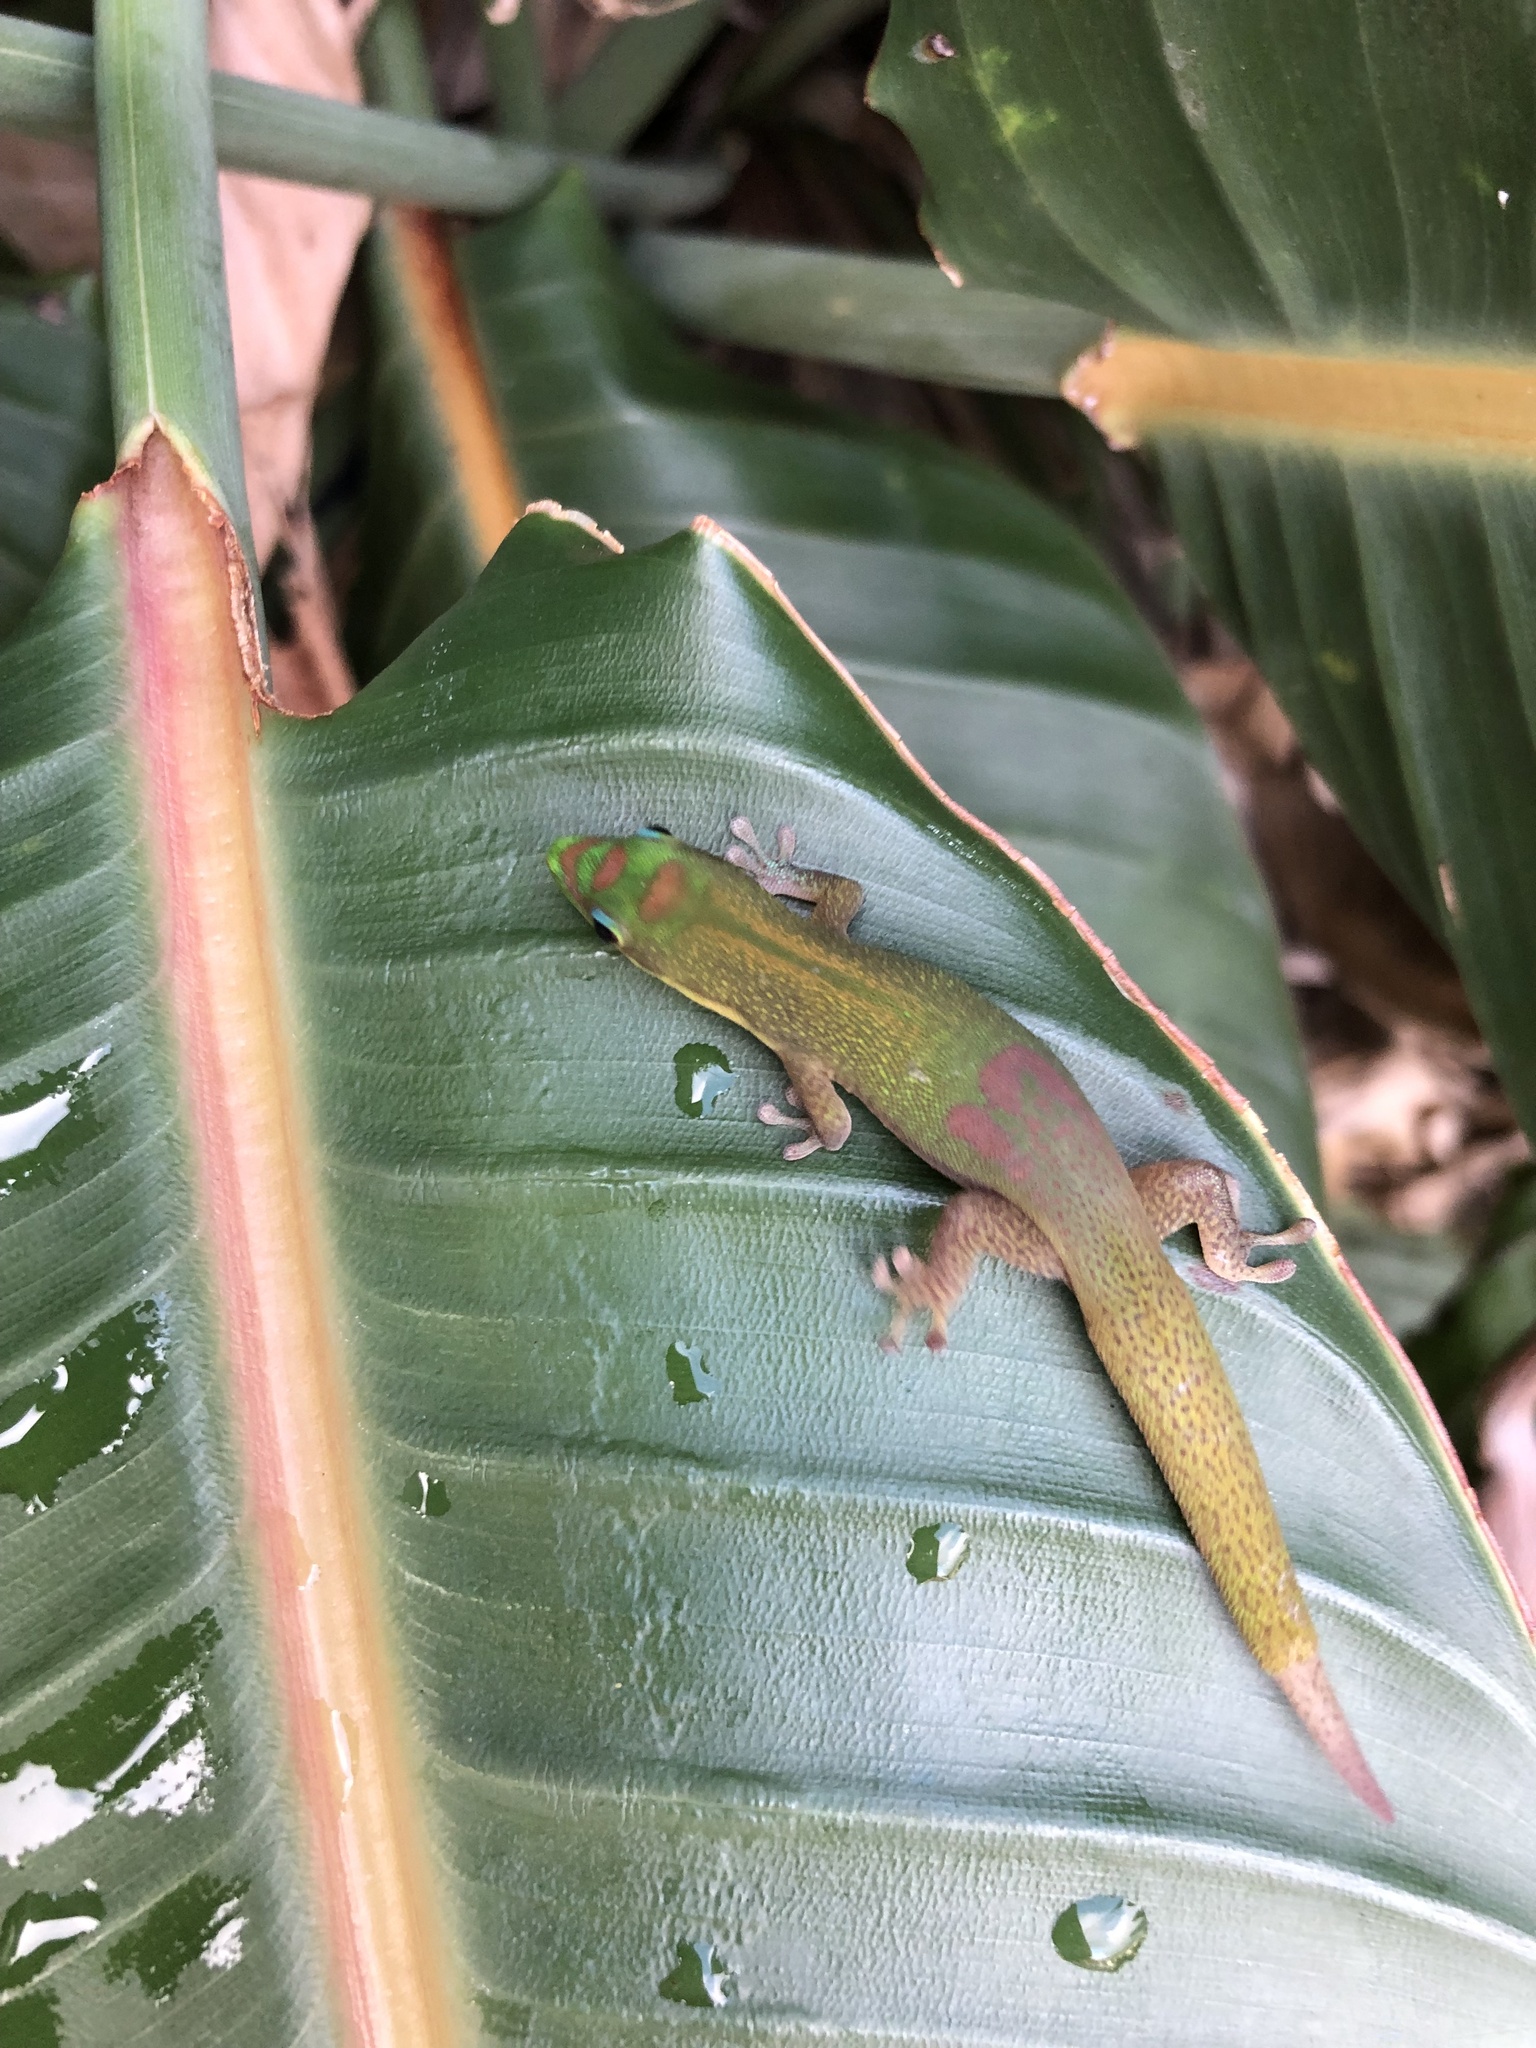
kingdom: Animalia
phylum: Chordata
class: Squamata
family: Gekkonidae
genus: Phelsuma
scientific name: Phelsuma laticauda
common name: Gold dust day gecko
